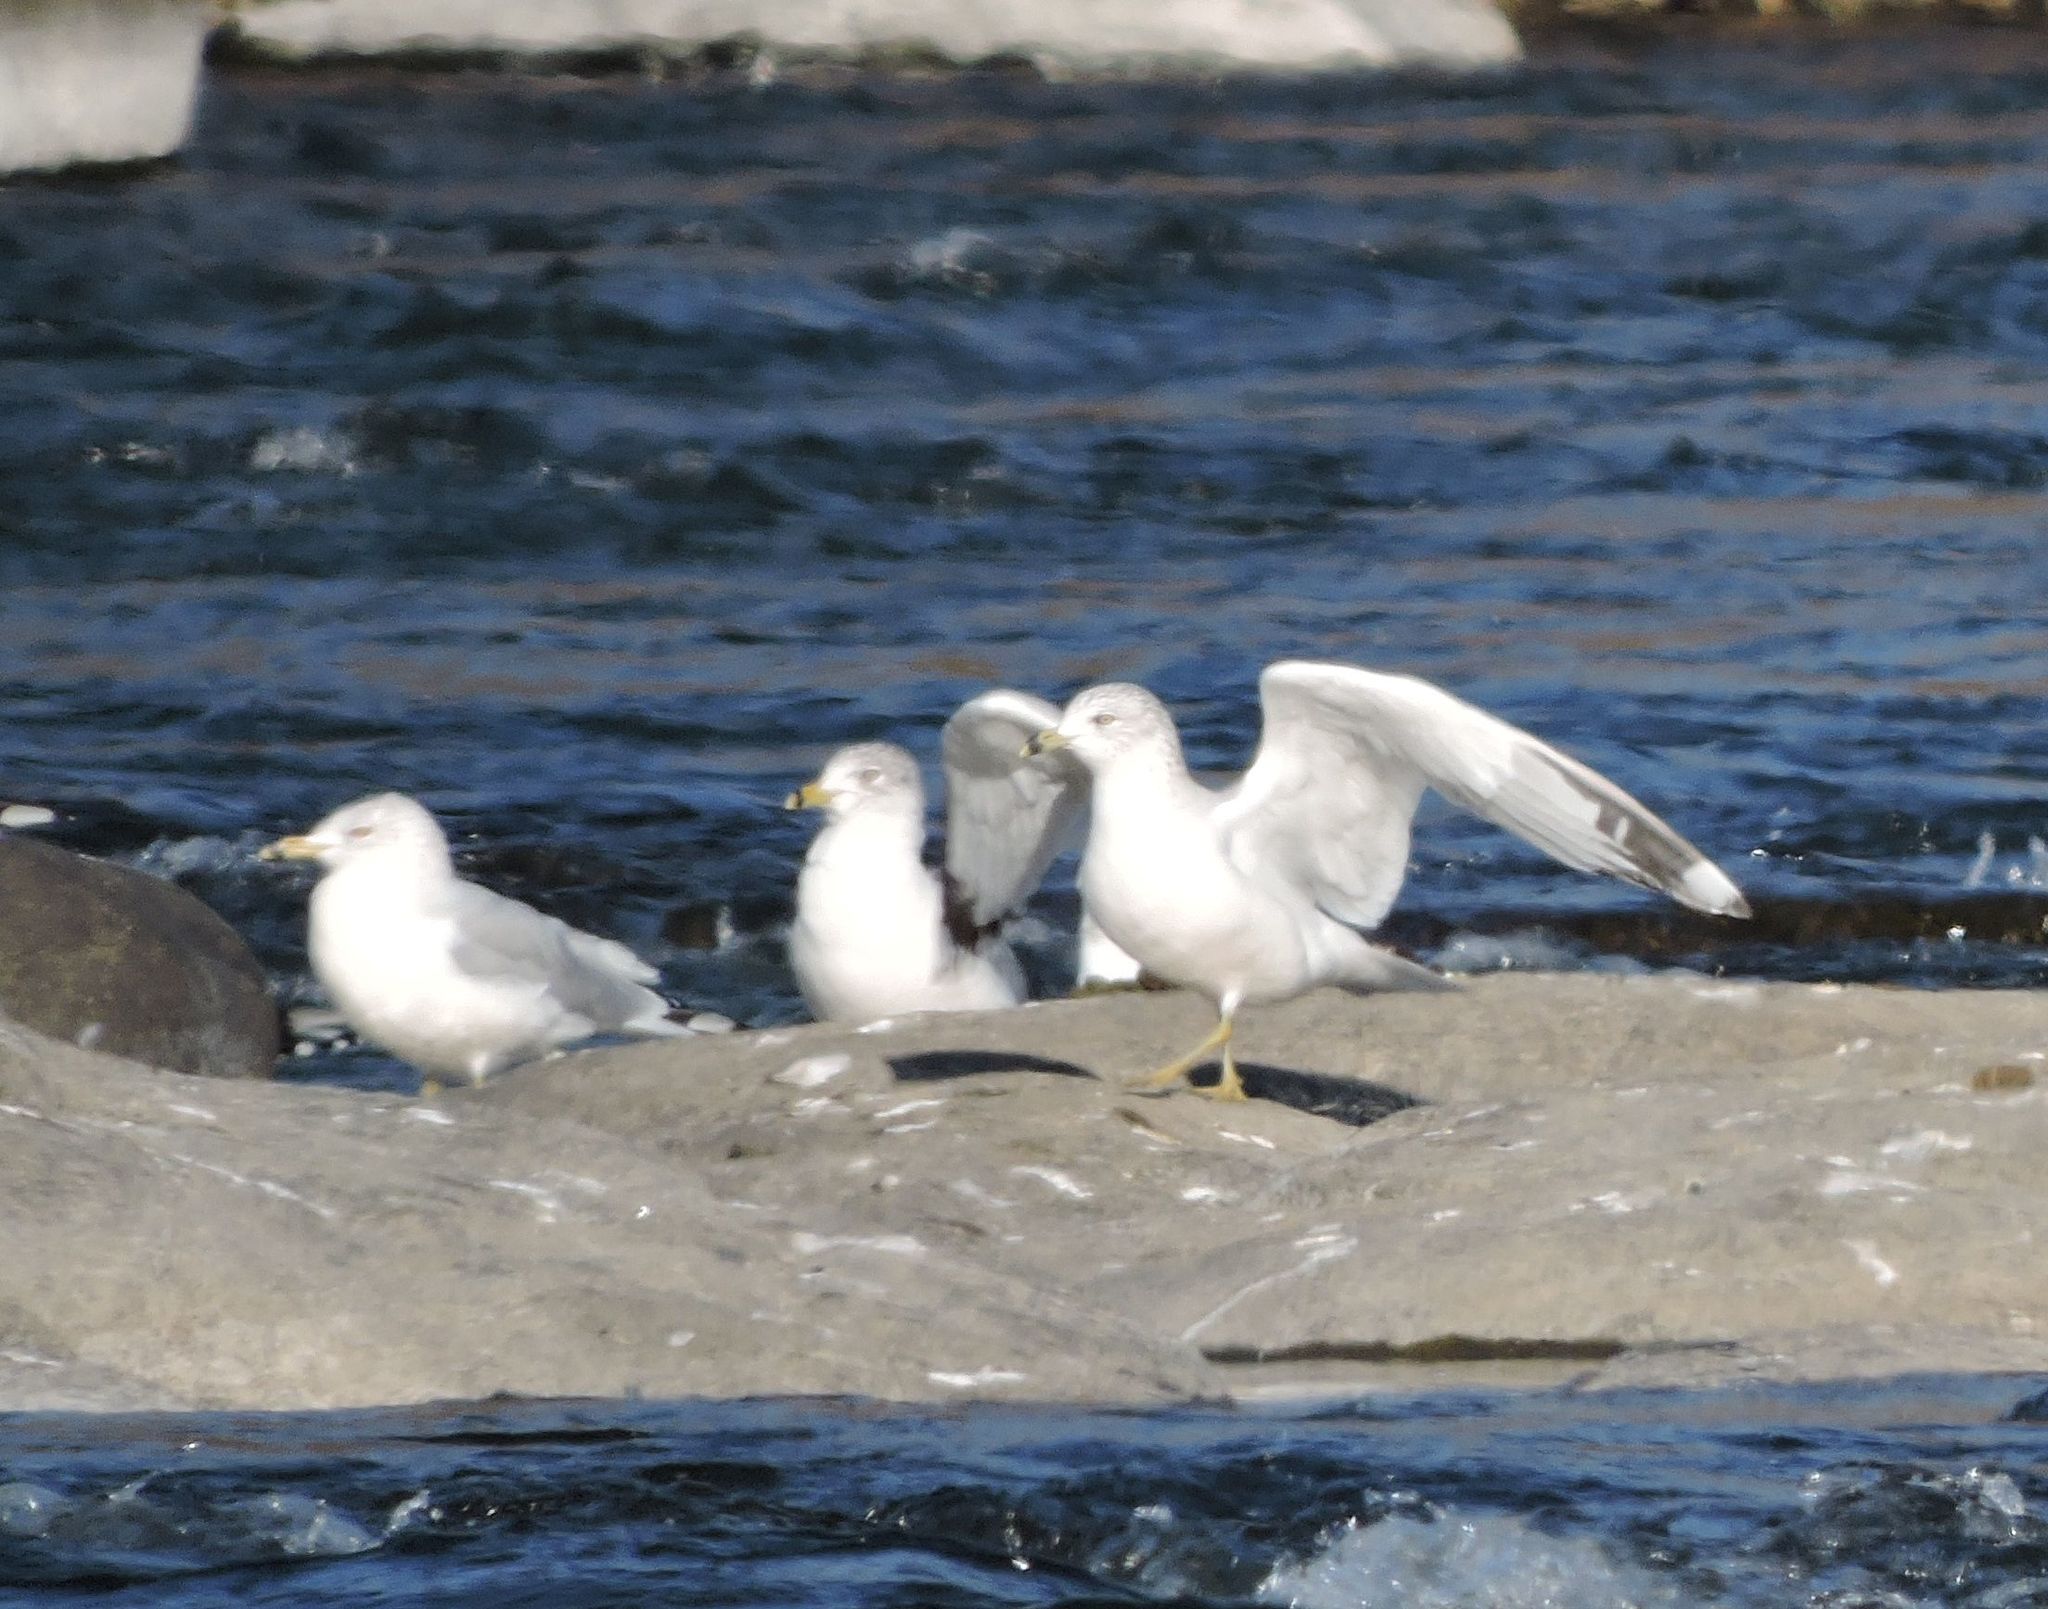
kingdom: Animalia
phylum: Chordata
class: Aves
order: Charadriiformes
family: Laridae
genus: Larus
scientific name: Larus delawarensis
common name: Ring-billed gull
